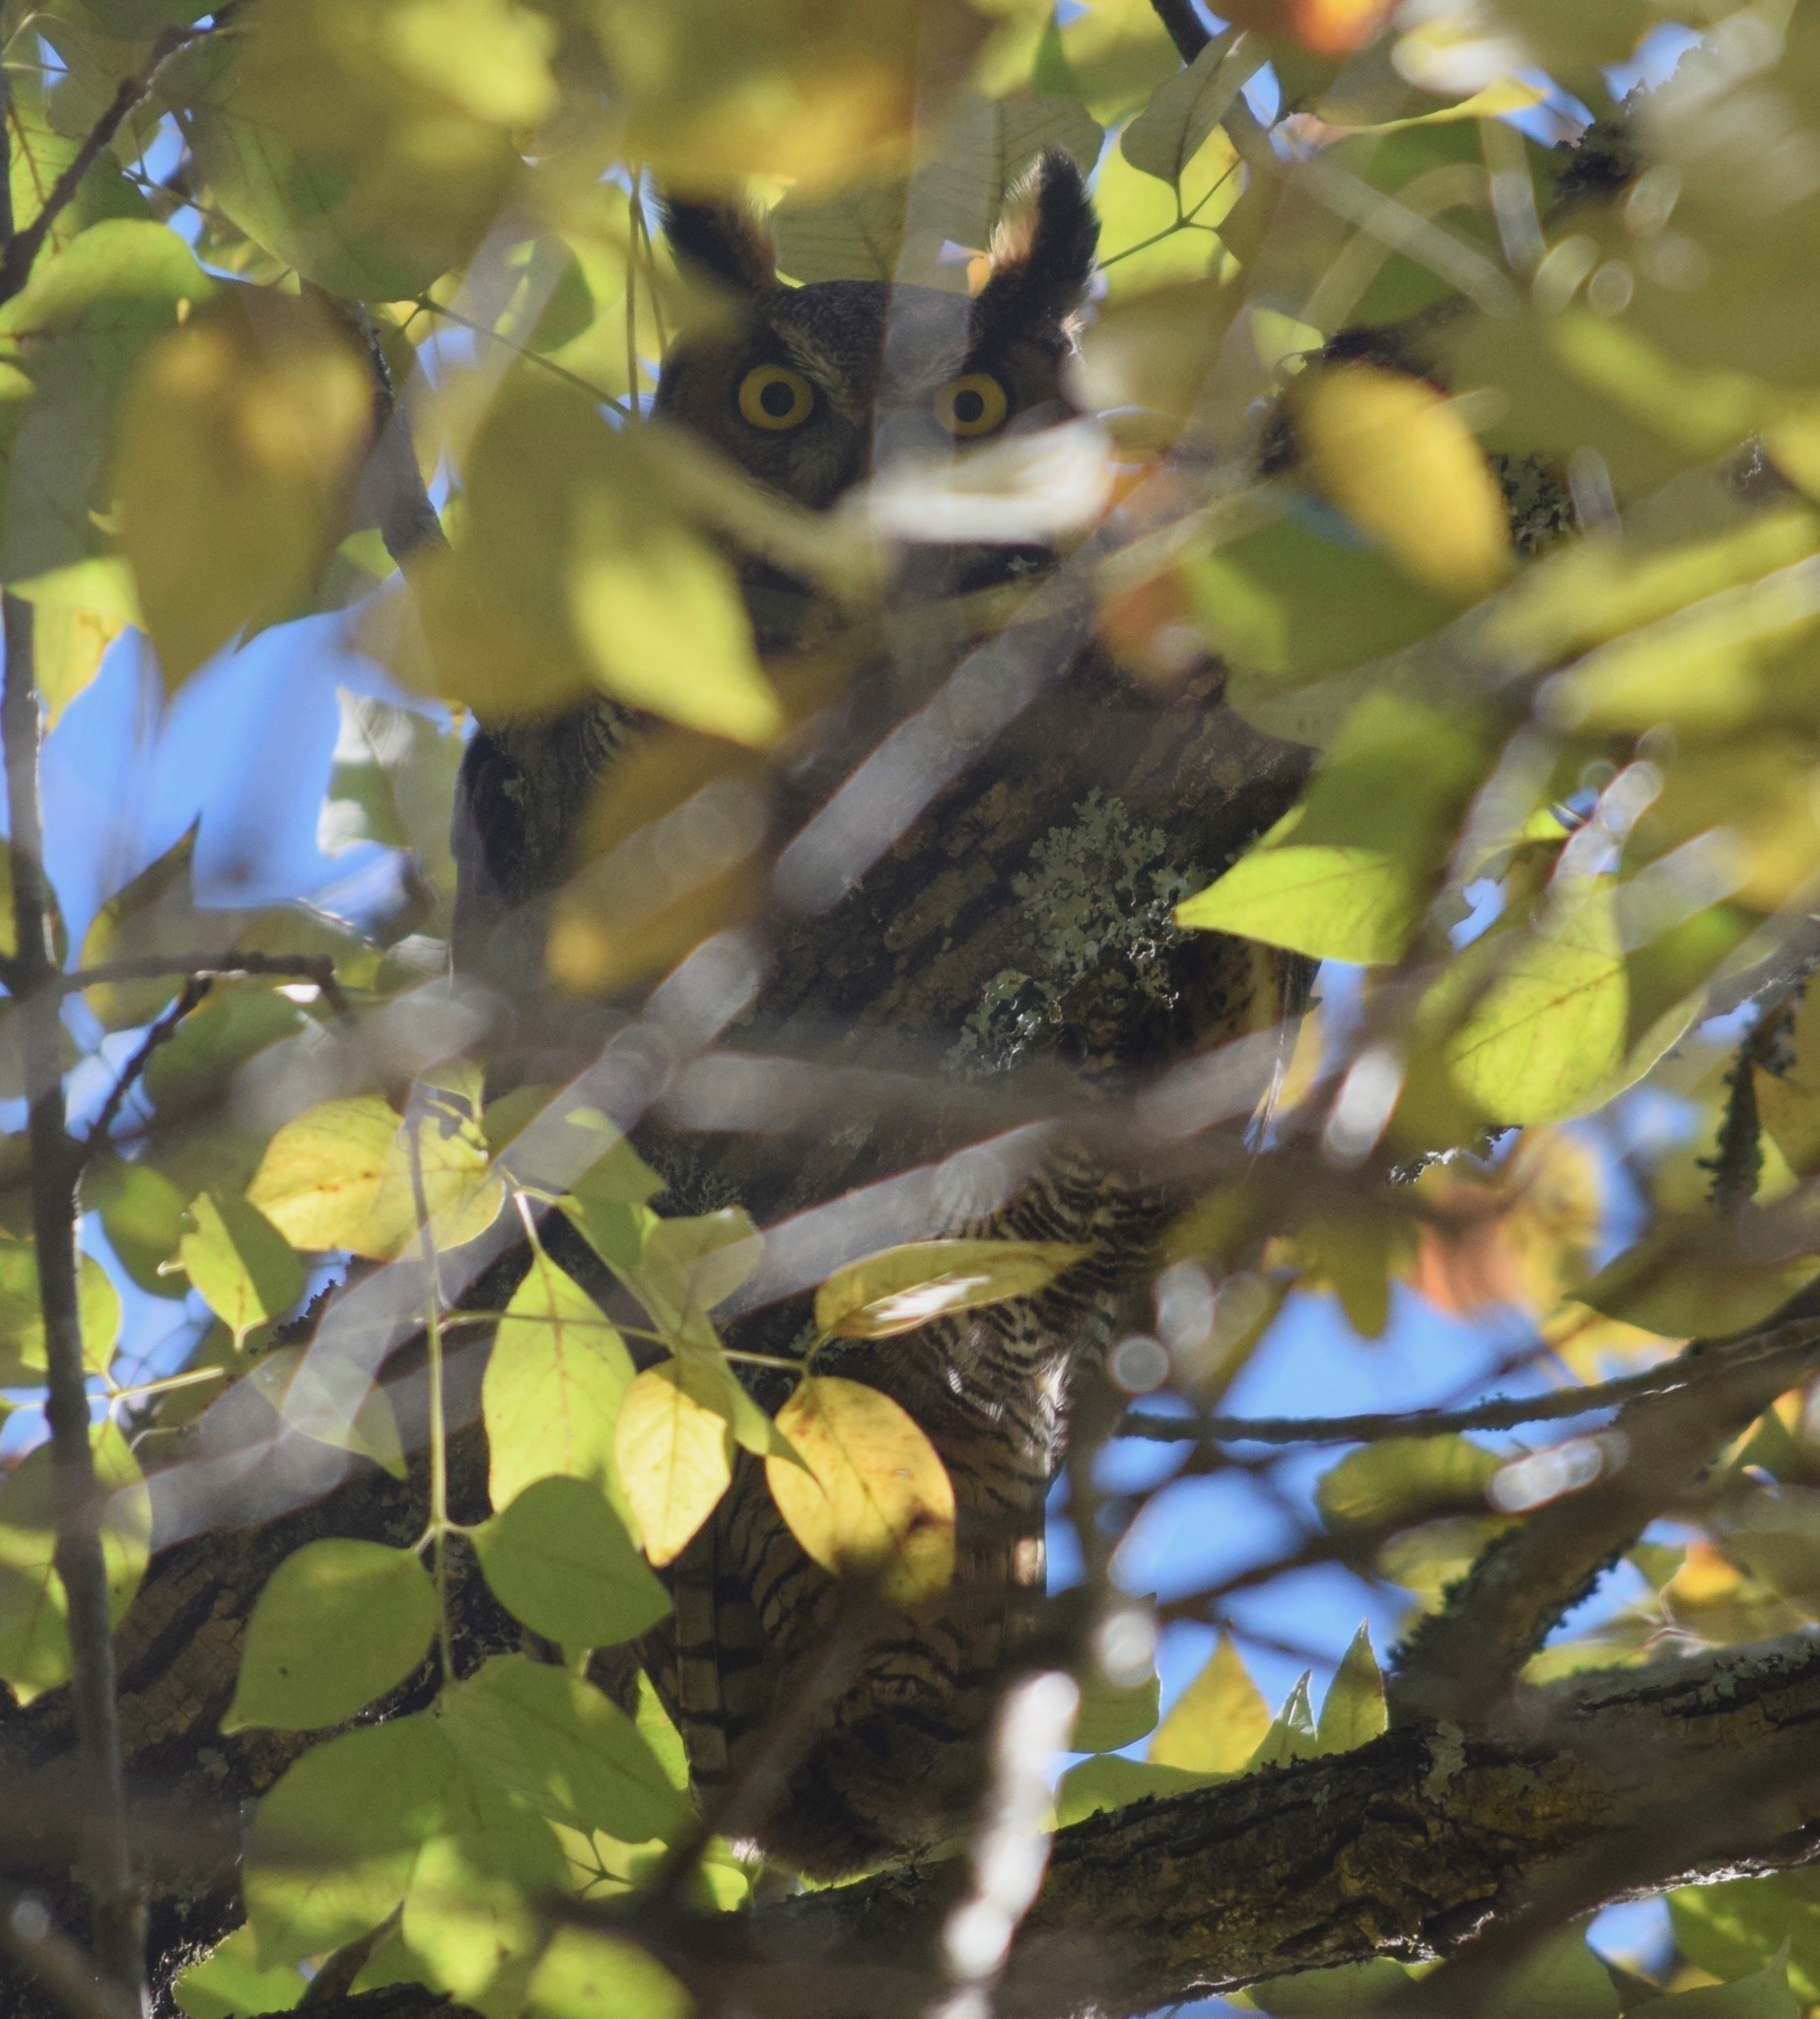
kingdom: Animalia
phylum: Chordata
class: Aves
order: Strigiformes
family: Strigidae
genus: Bubo
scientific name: Bubo virginianus
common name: Great horned owl
